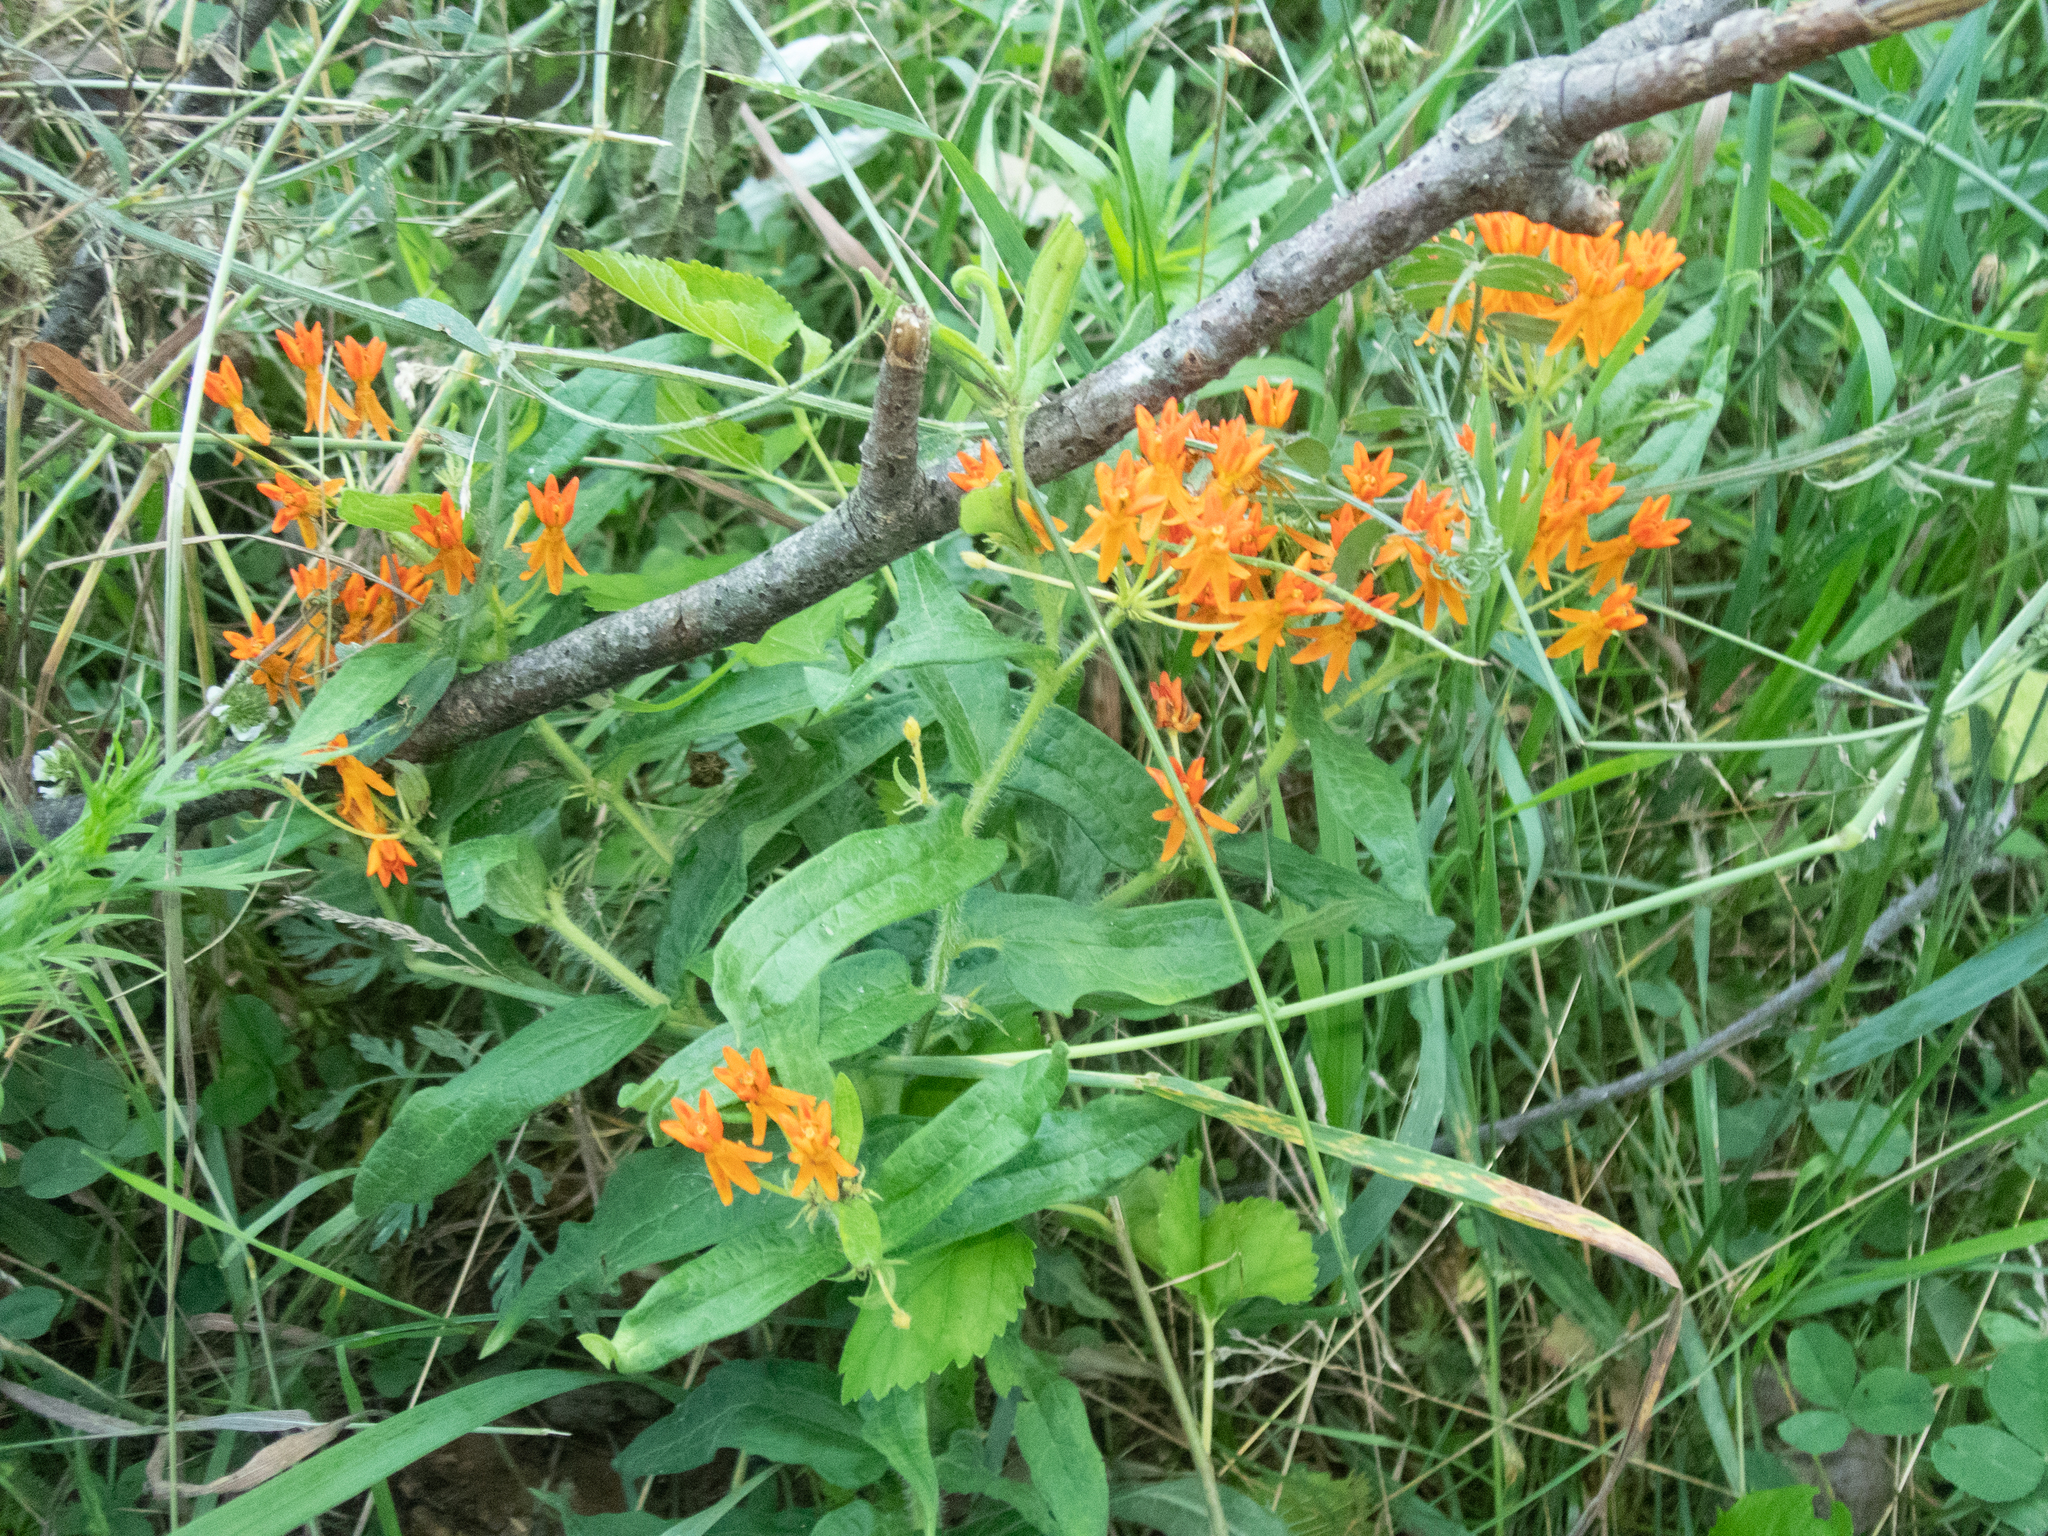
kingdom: Plantae
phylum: Tracheophyta
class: Magnoliopsida
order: Gentianales
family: Apocynaceae
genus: Asclepias
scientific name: Asclepias tuberosa
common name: Butterfly milkweed
